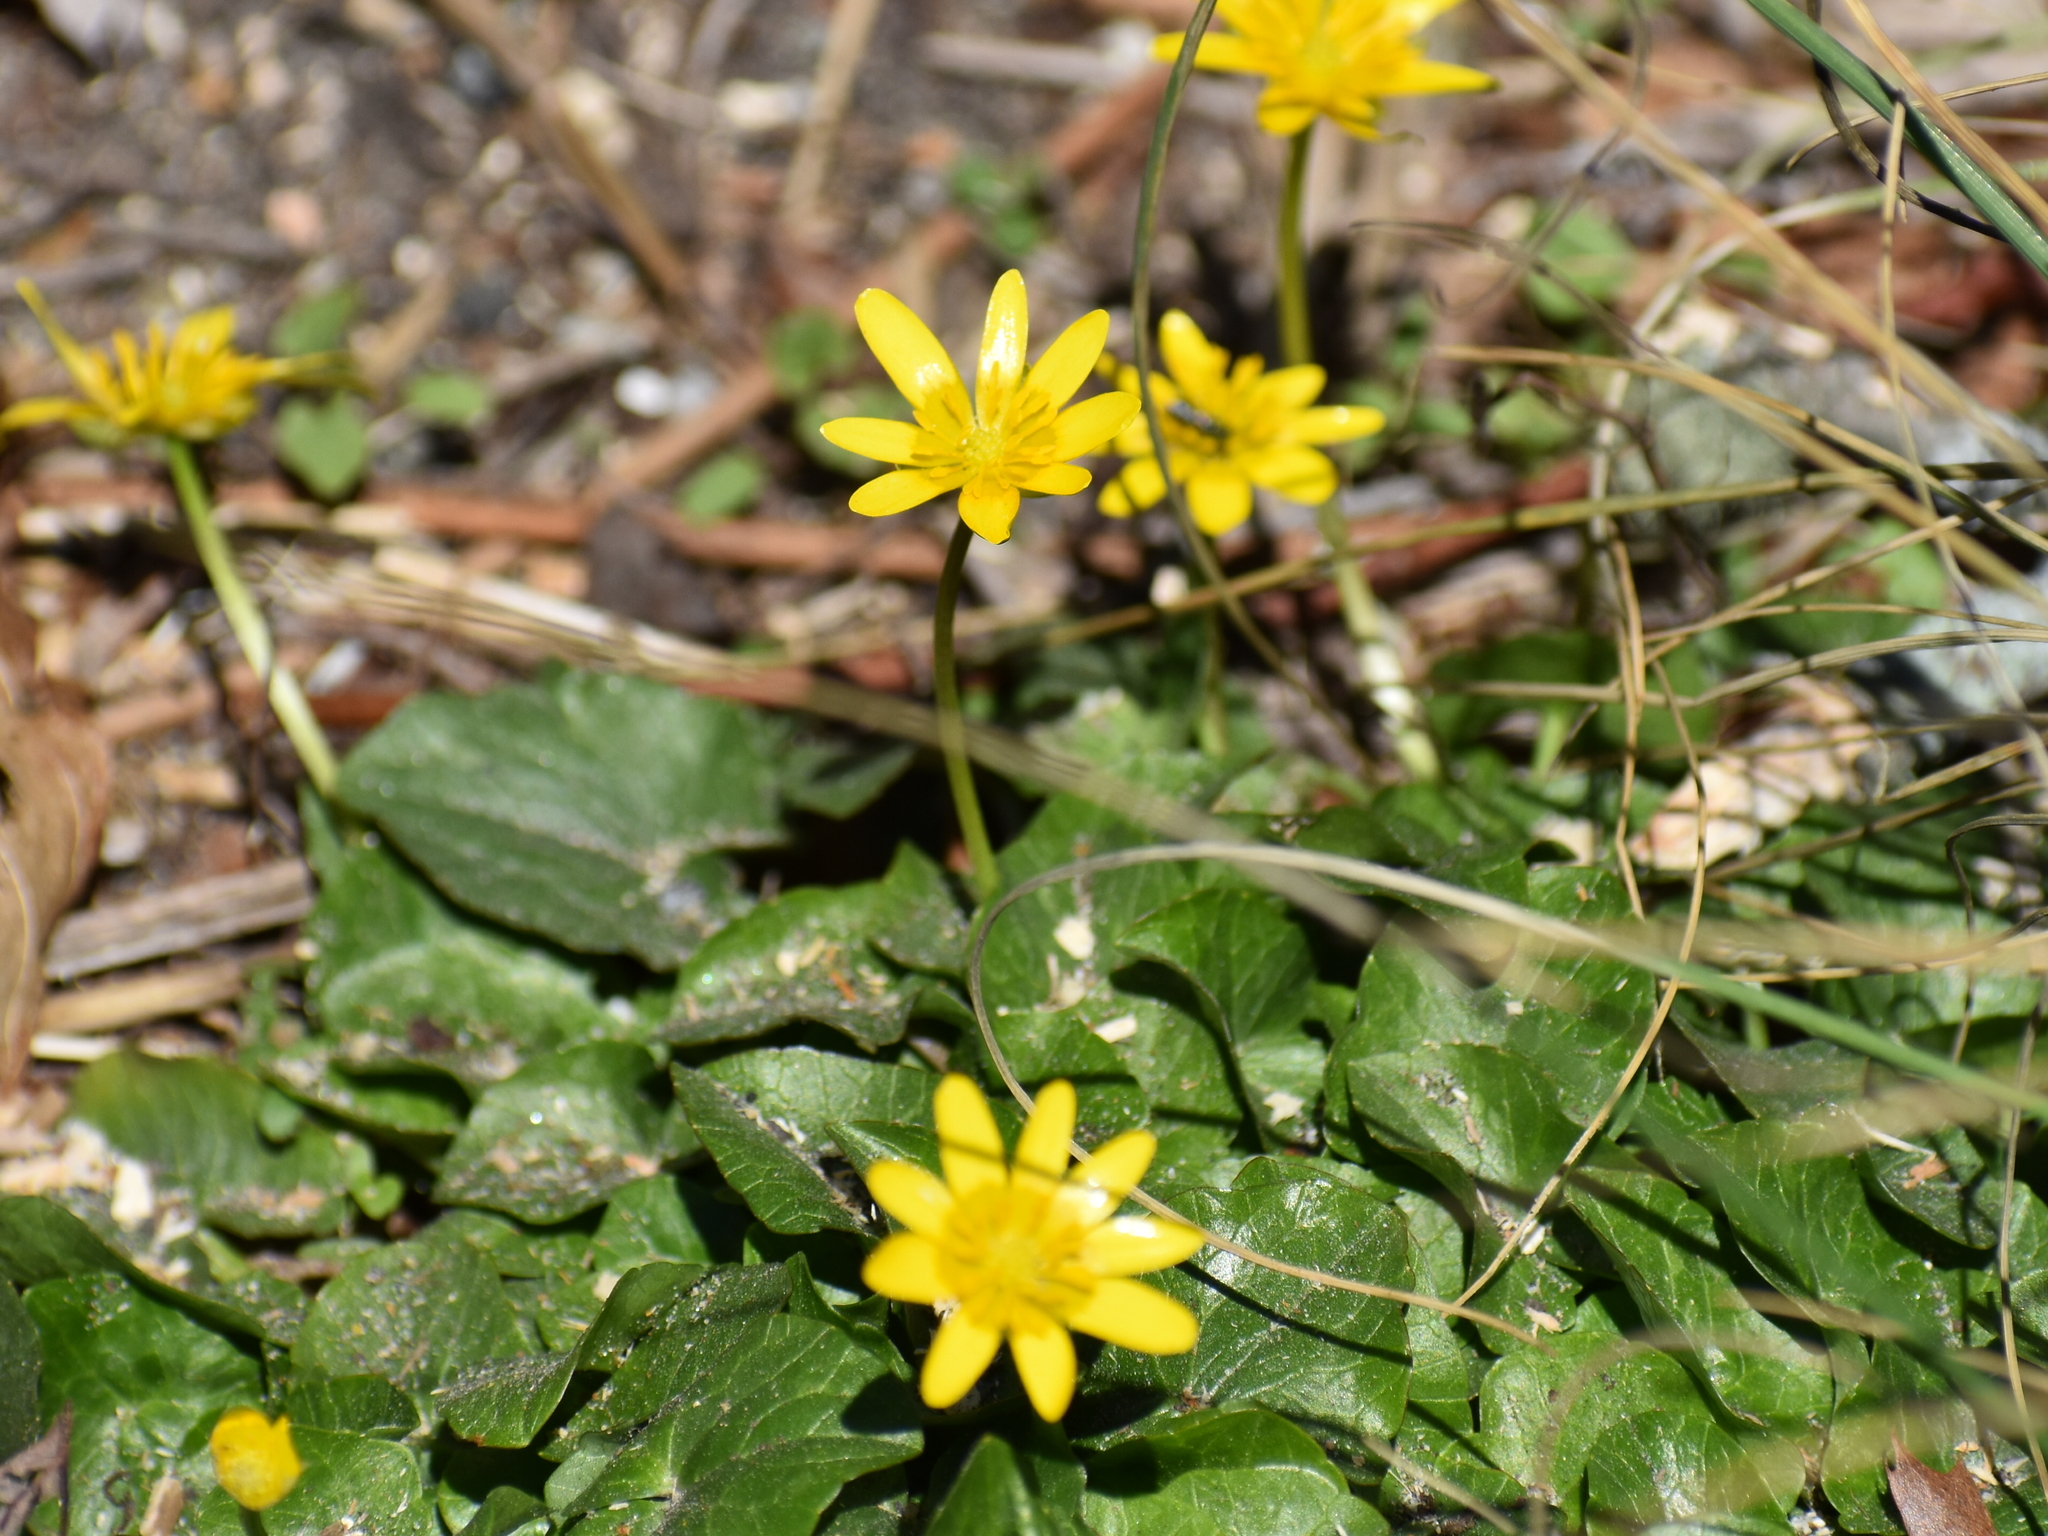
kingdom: Plantae
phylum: Tracheophyta
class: Magnoliopsida
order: Ranunculales
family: Ranunculaceae
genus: Ficaria
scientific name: Ficaria verna
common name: Lesser celandine
